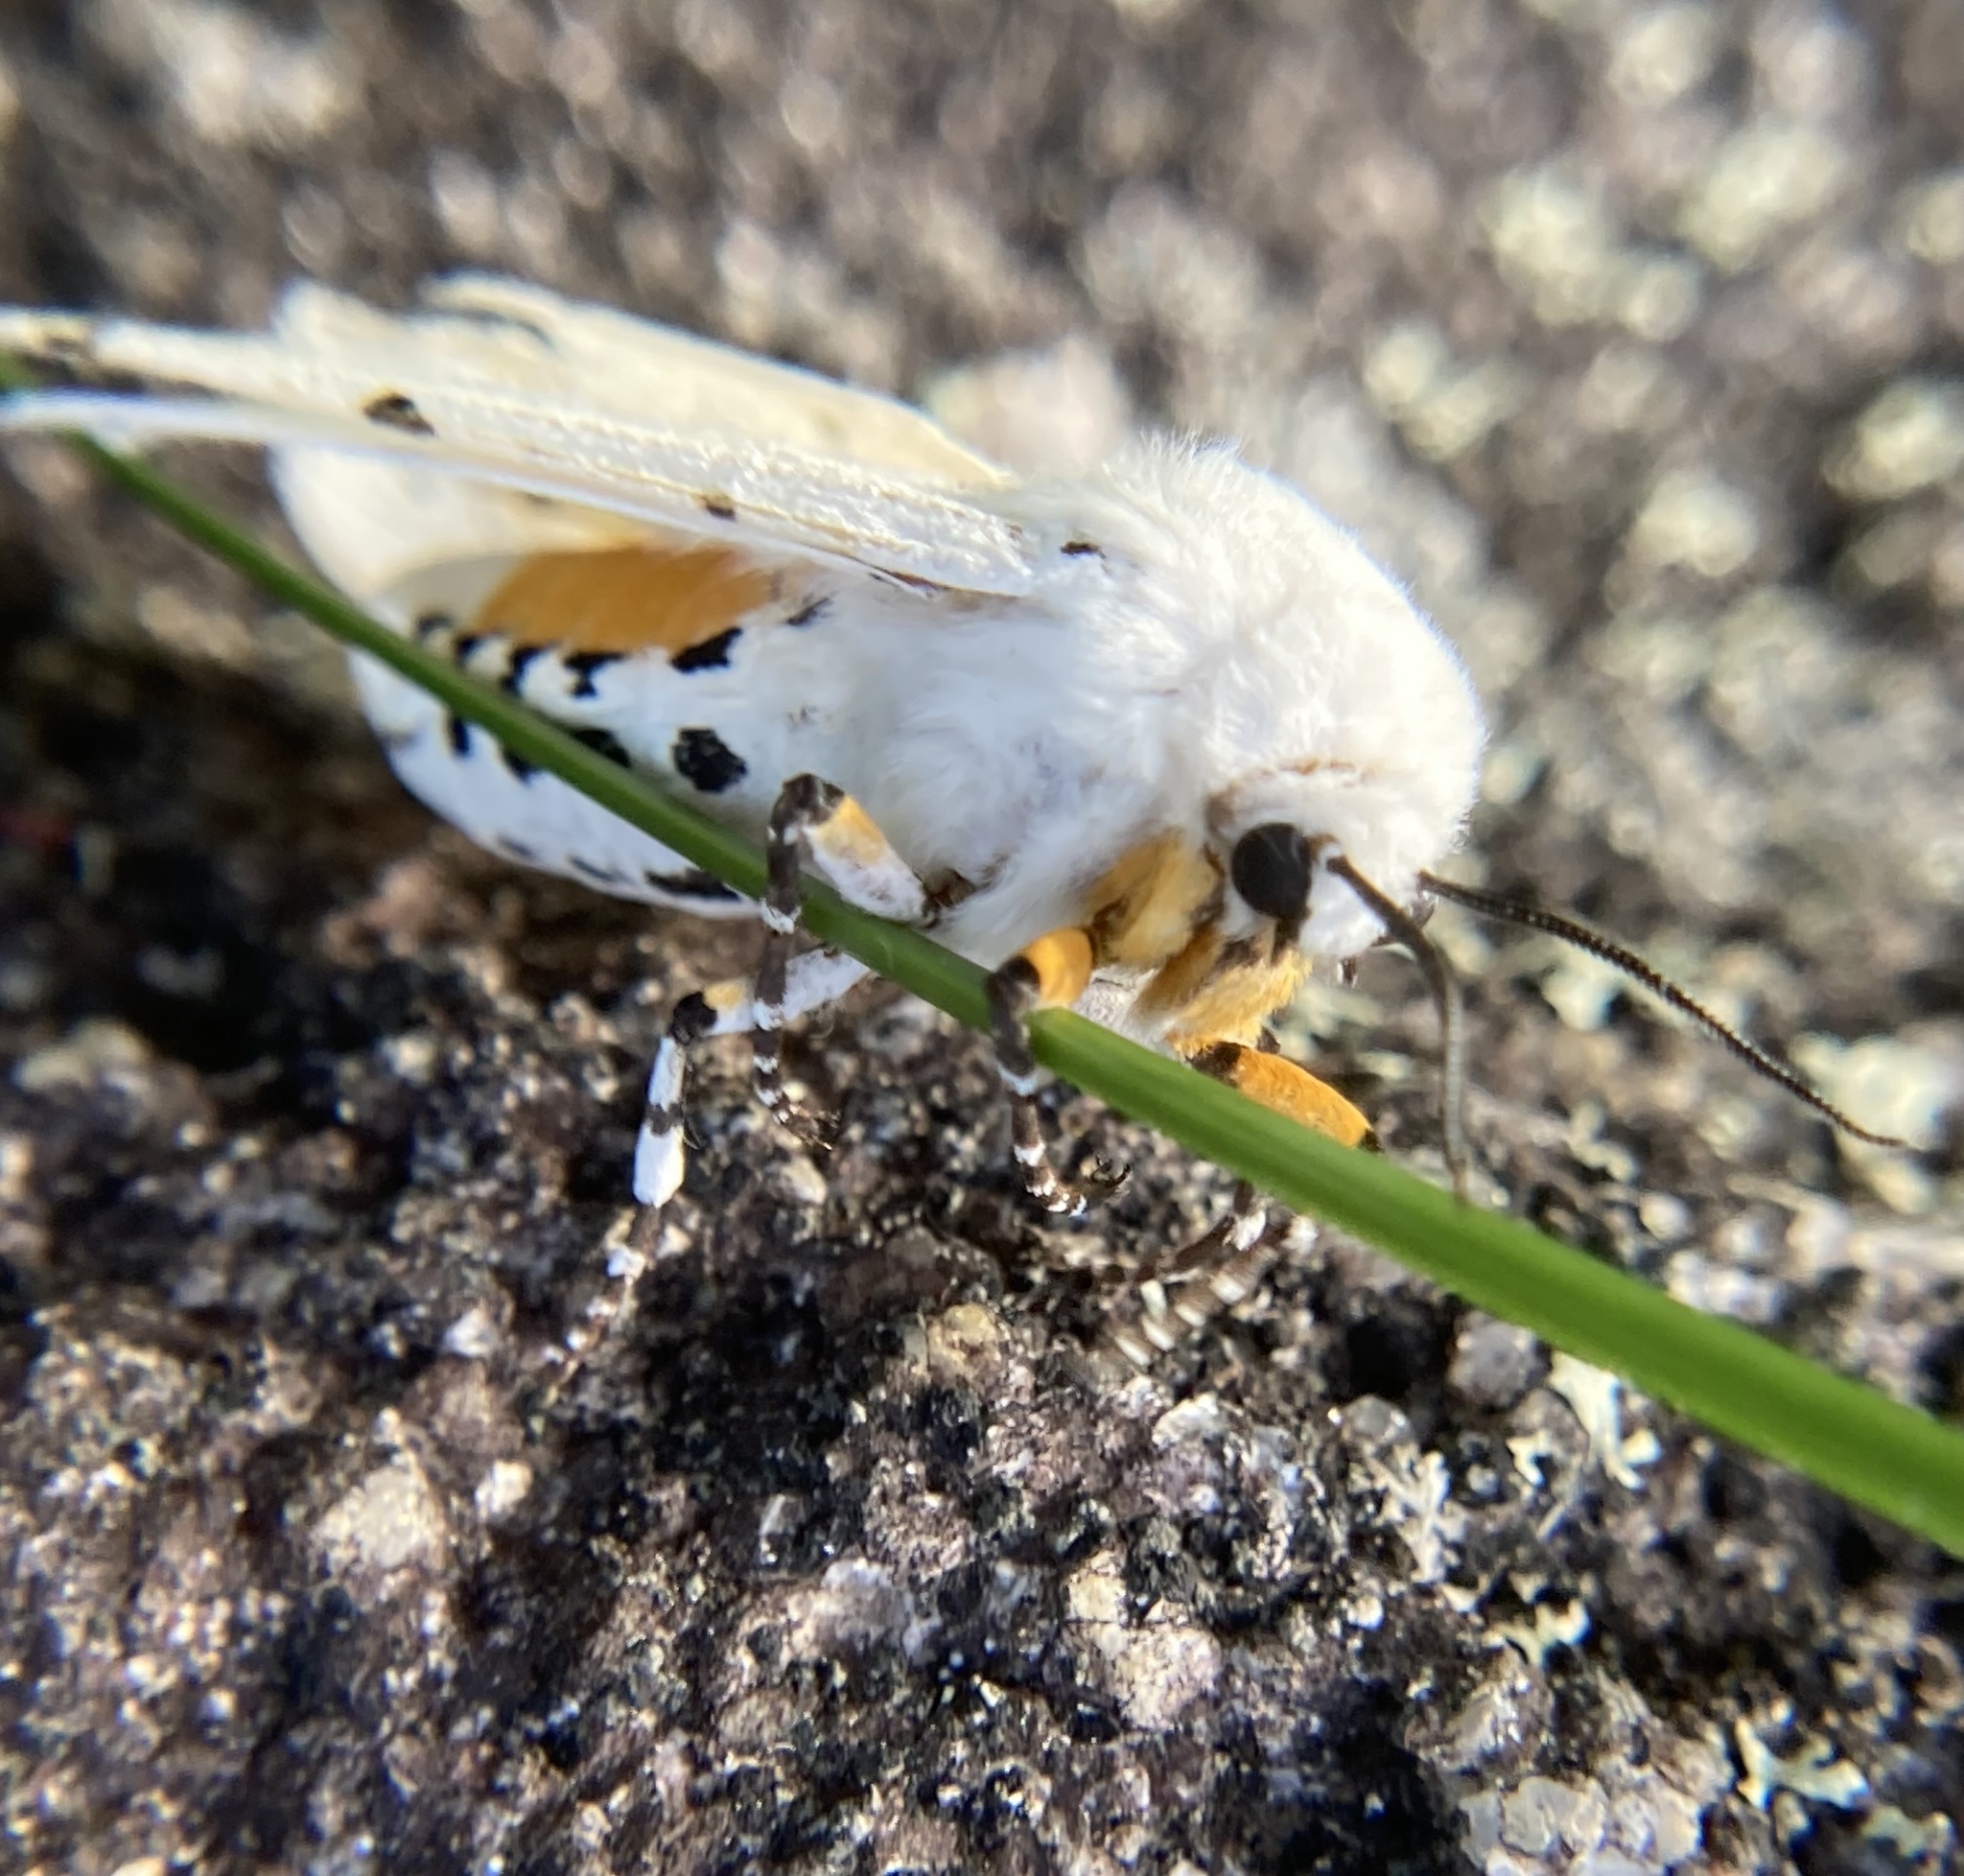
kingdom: Animalia
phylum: Arthropoda
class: Insecta
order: Lepidoptera
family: Erebidae
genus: Estigmene
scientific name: Estigmene acrea
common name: Salt marsh moth
